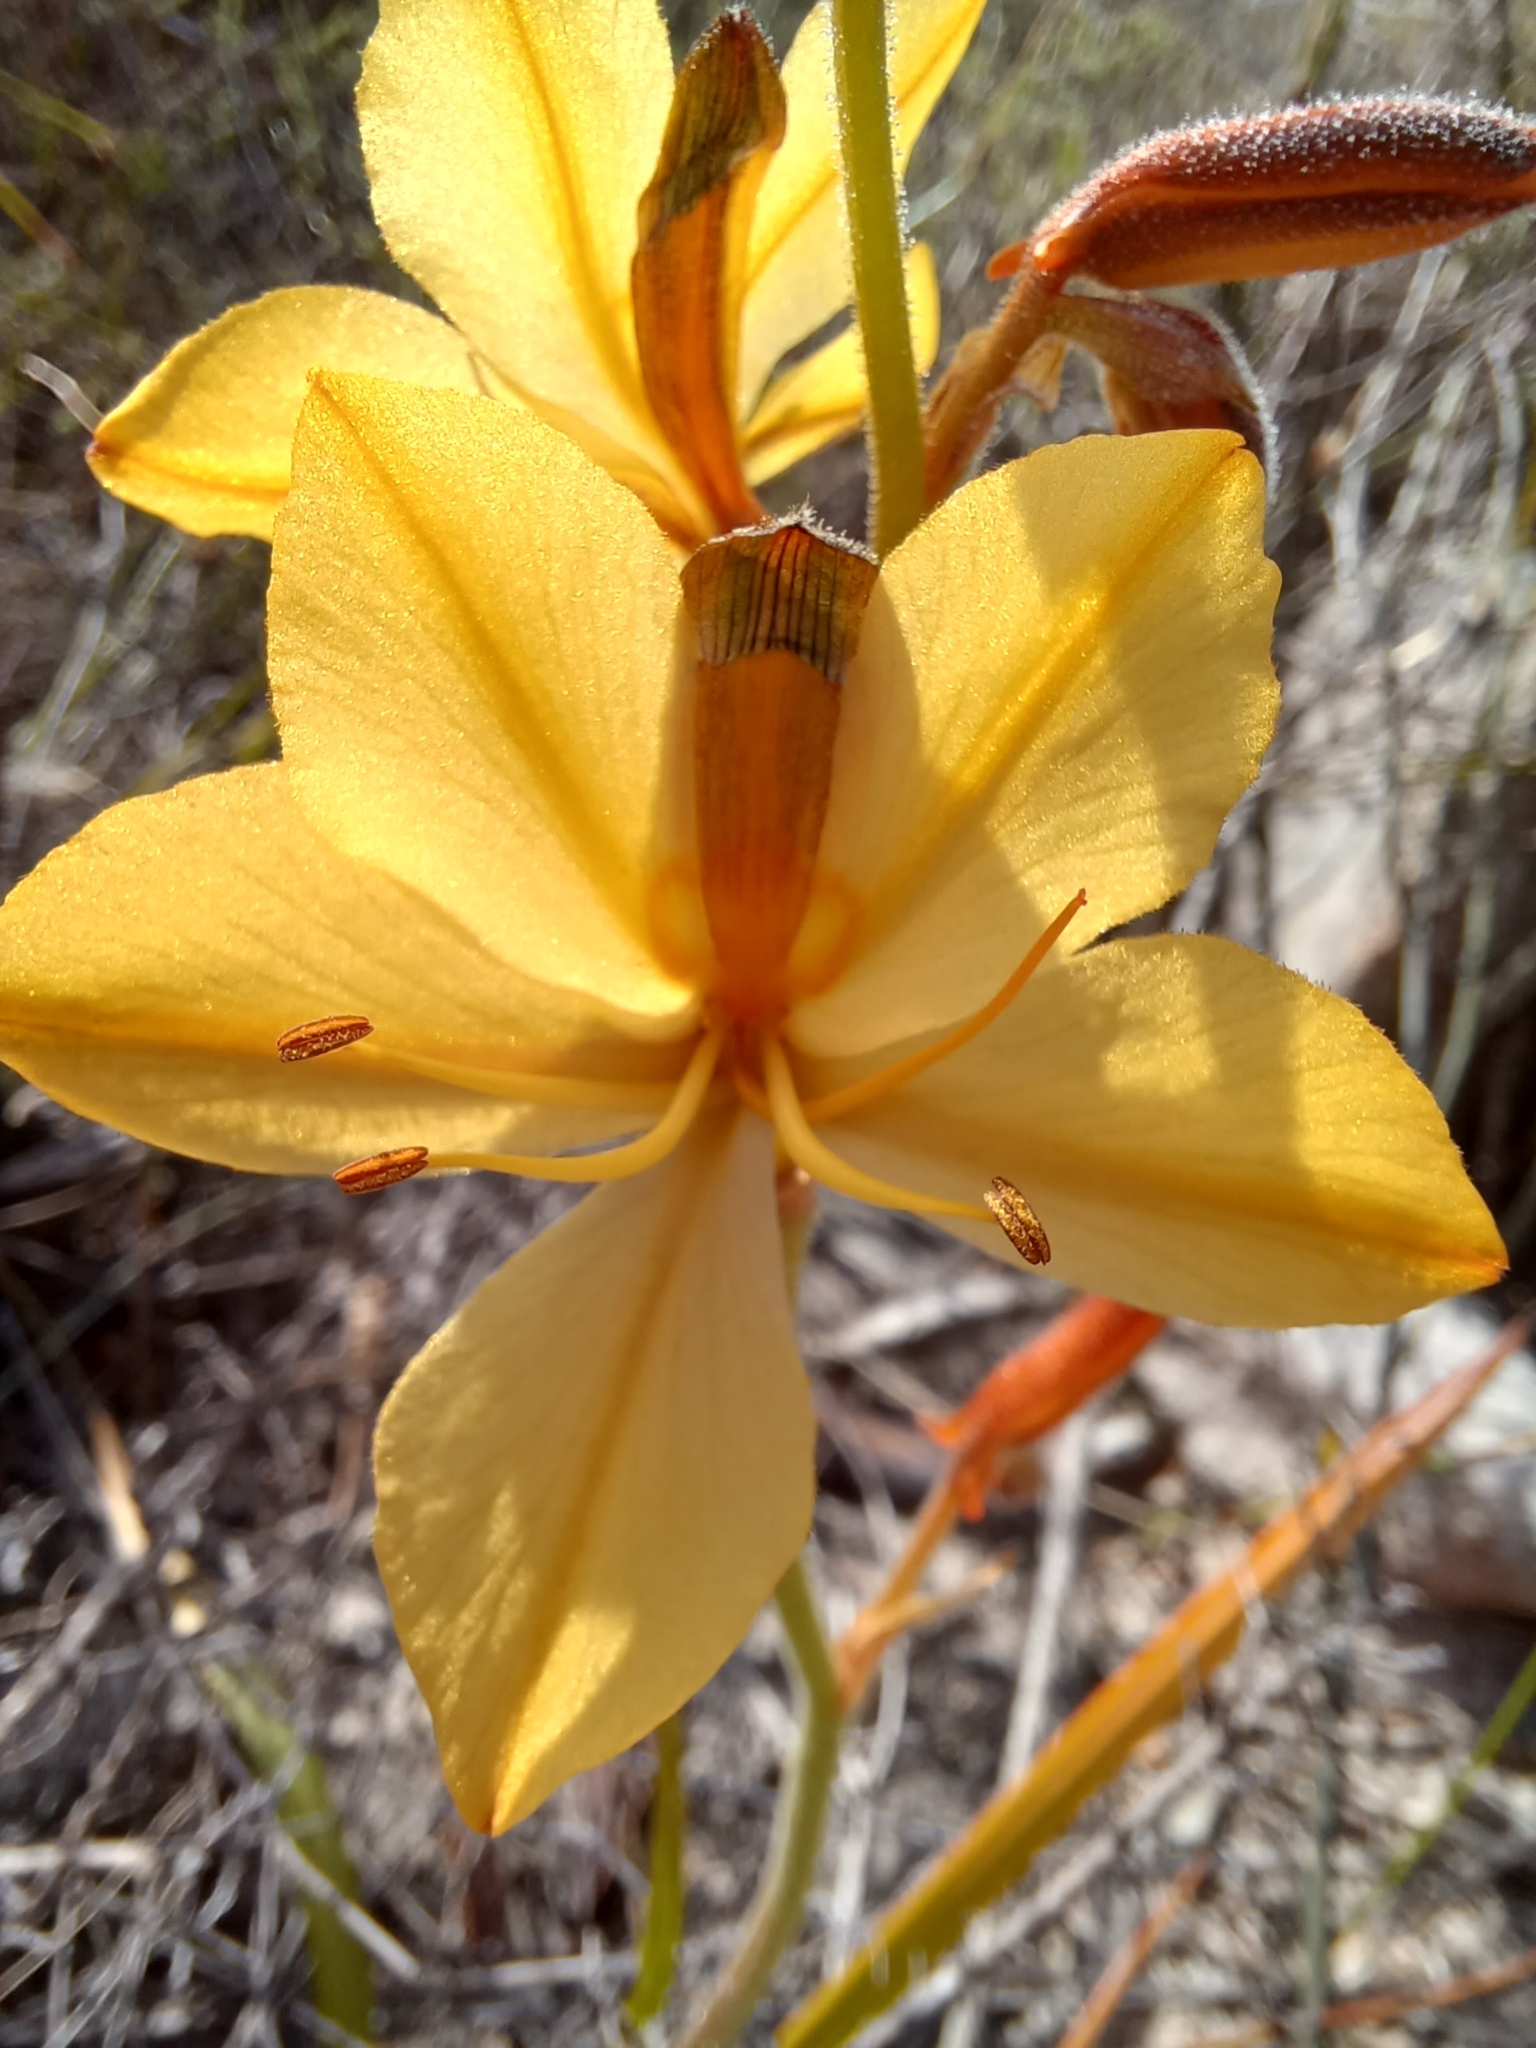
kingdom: Plantae
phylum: Tracheophyta
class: Liliopsida
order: Commelinales
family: Haemodoraceae
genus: Wachendorfia
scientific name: Wachendorfia paniculata
